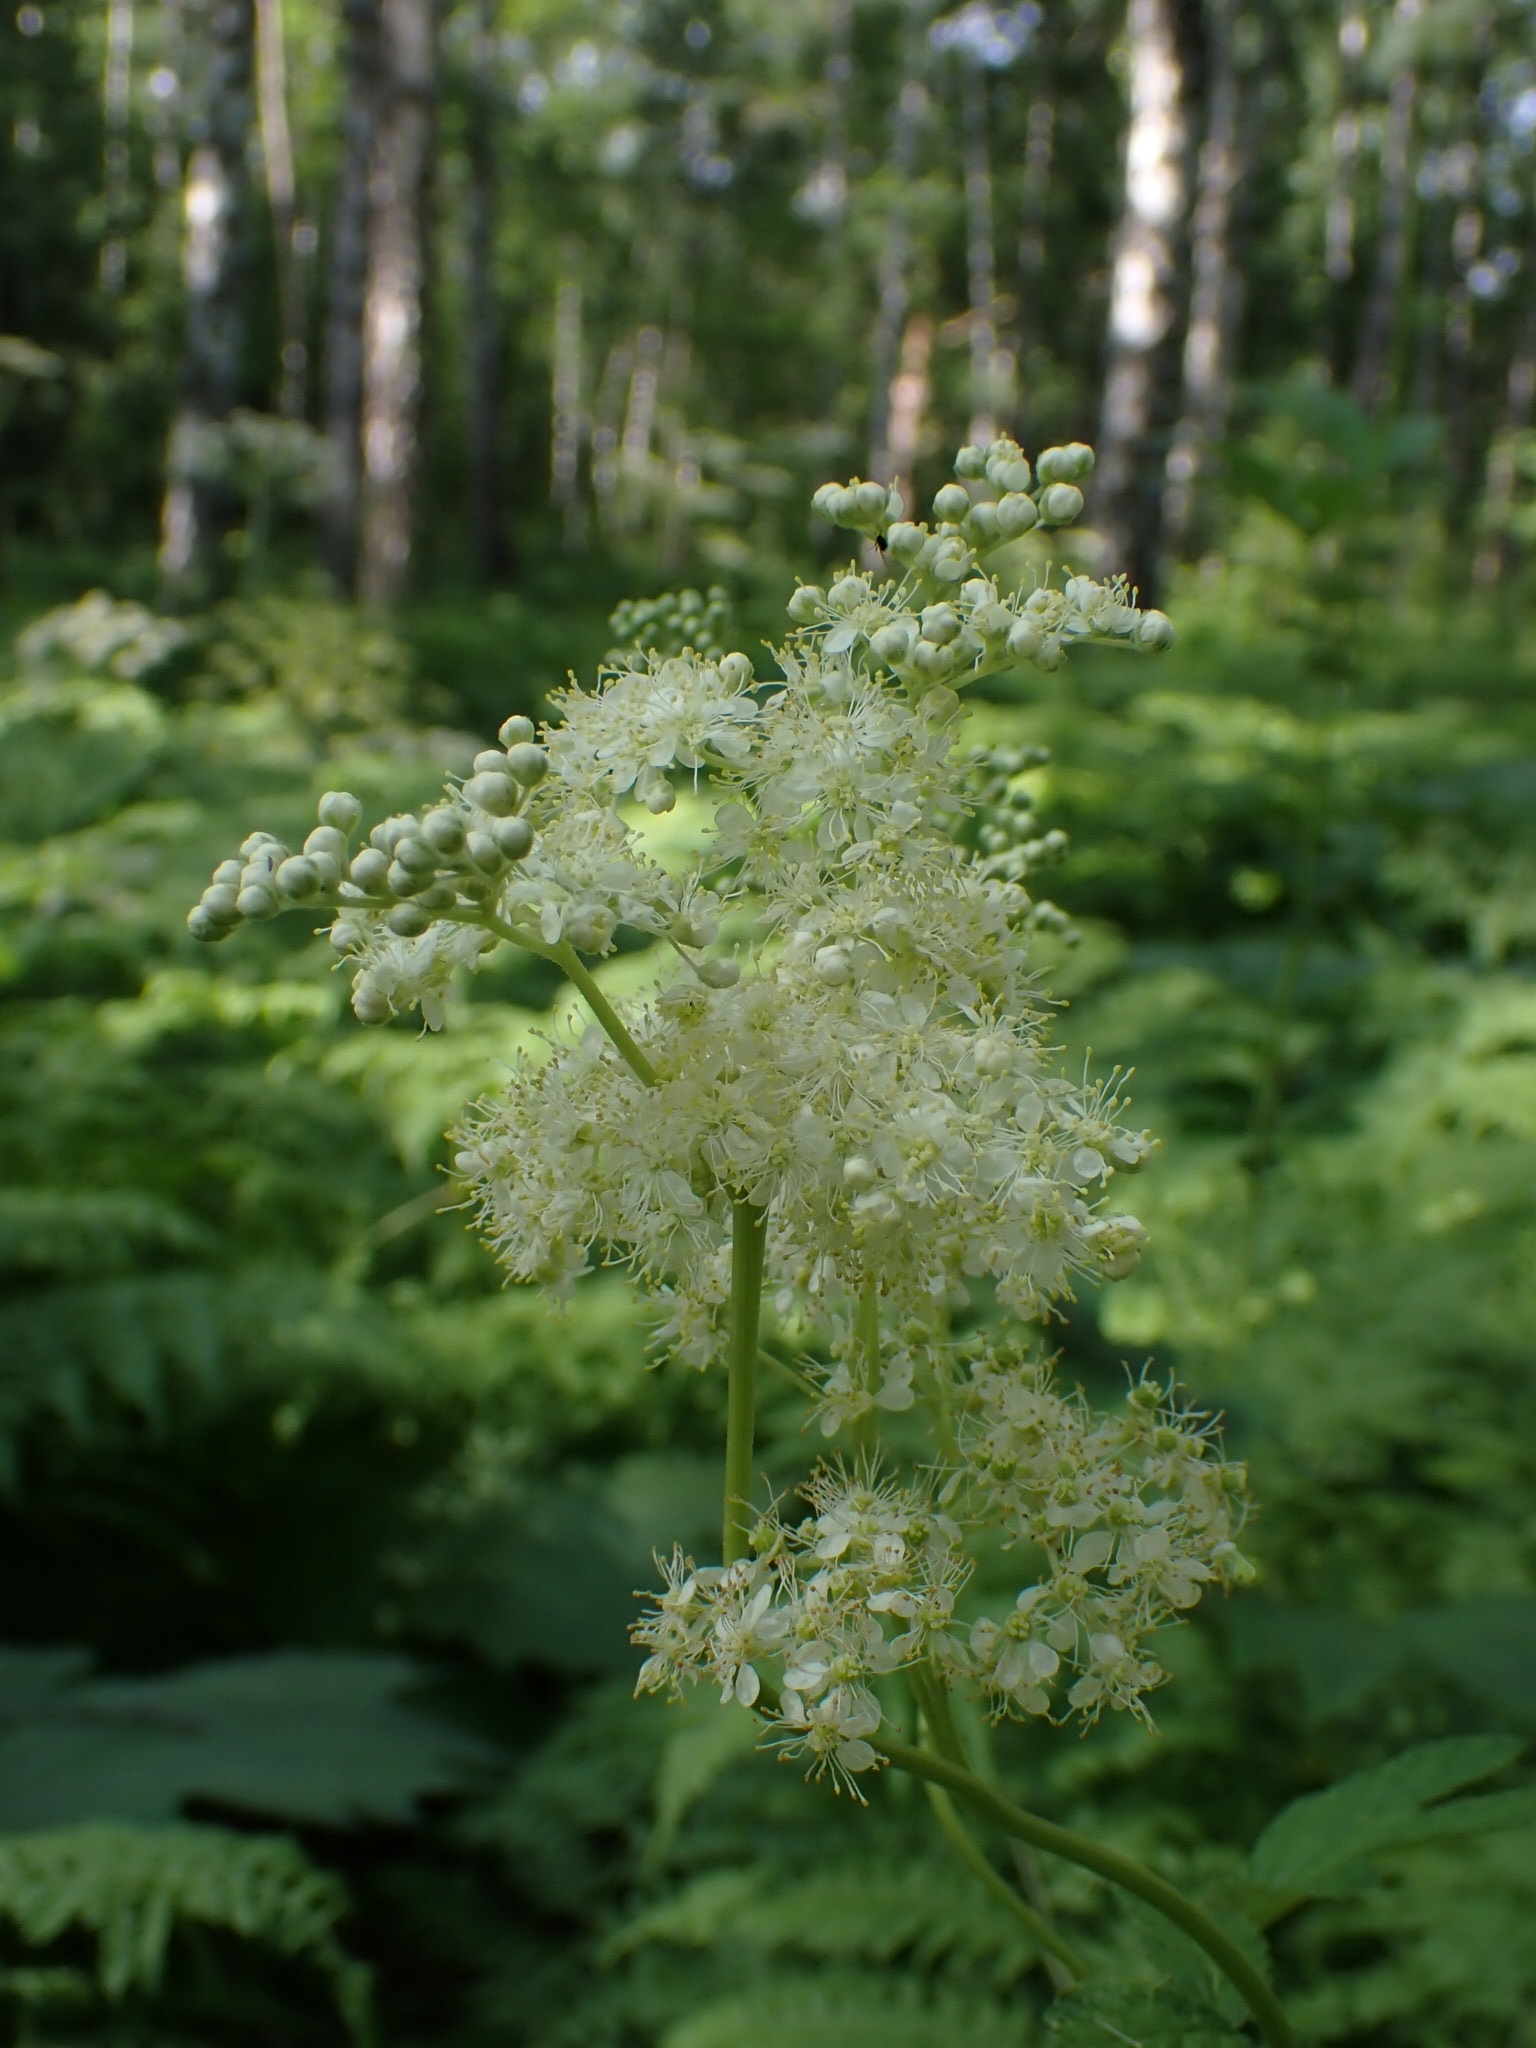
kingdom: Plantae
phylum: Tracheophyta
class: Magnoliopsida
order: Rosales
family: Rosaceae
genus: Filipendula
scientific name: Filipendula ulmaria
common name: Meadowsweet
